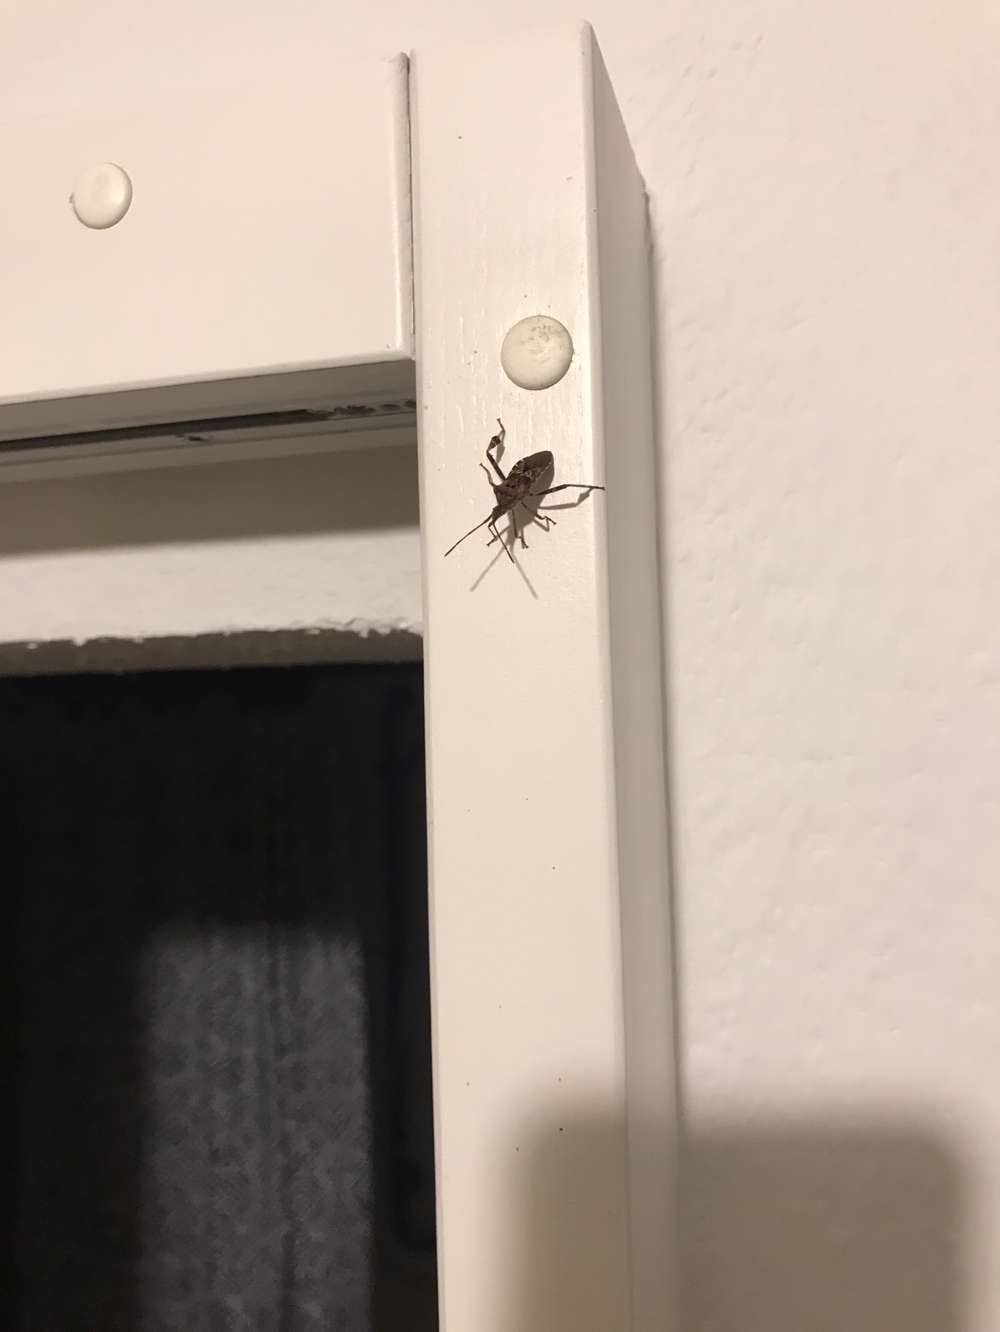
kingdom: Animalia
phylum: Arthropoda
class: Insecta
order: Hemiptera
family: Coreidae
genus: Leptoglossus
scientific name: Leptoglossus occidentalis
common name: Western conifer-seed bug
